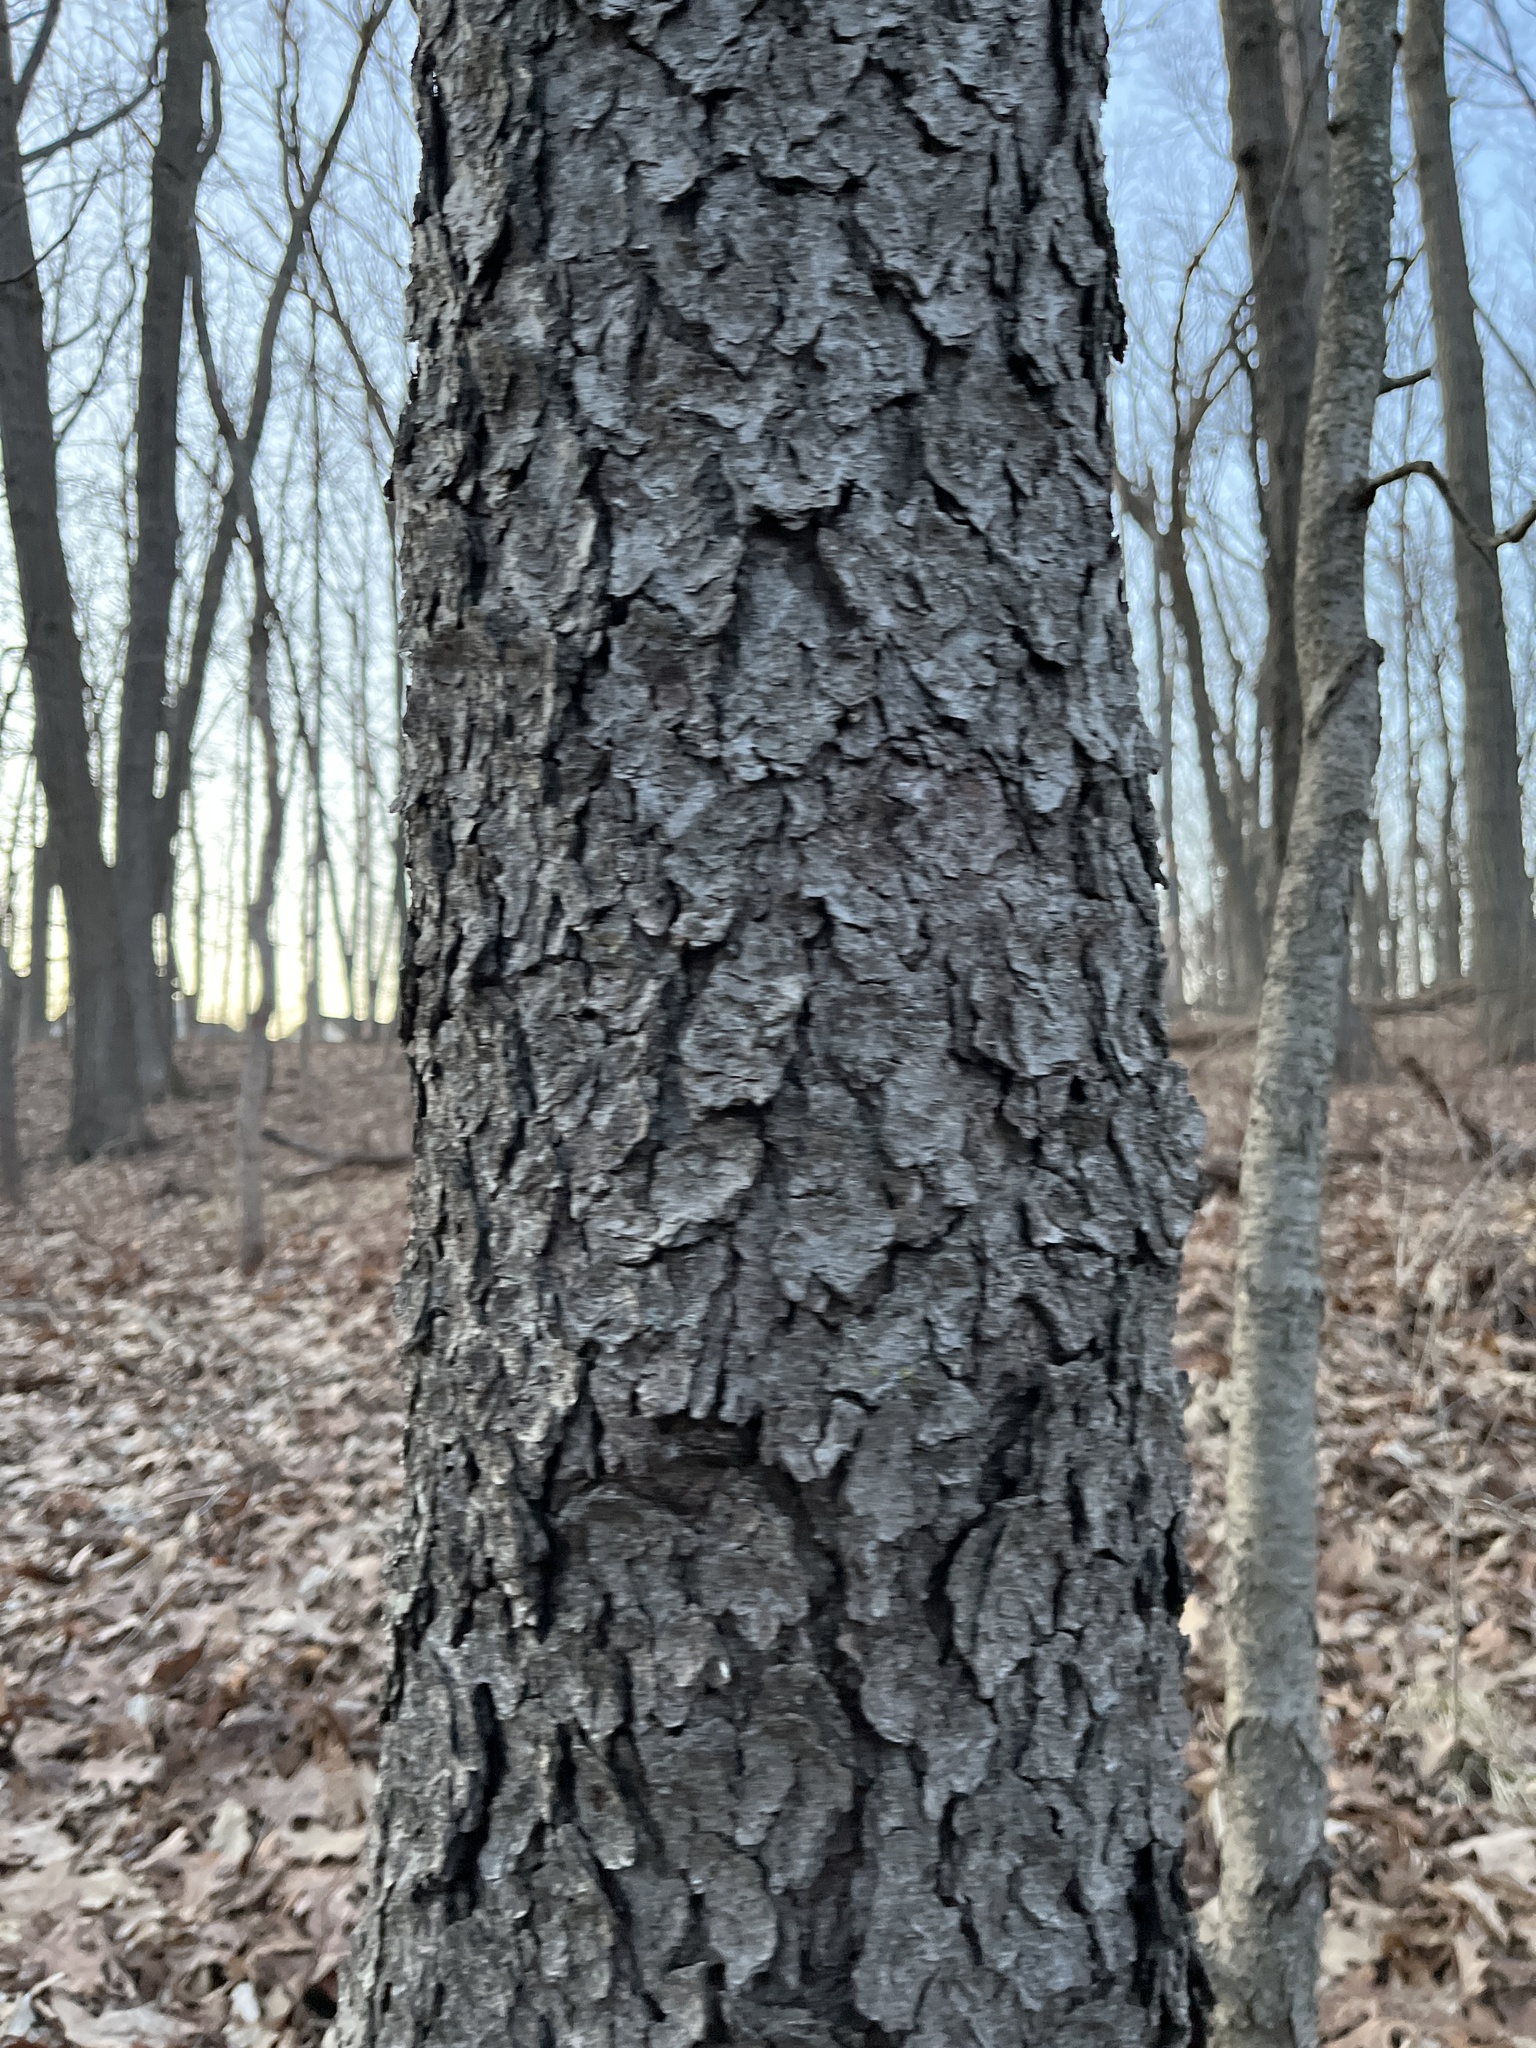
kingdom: Plantae
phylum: Tracheophyta
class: Magnoliopsida
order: Rosales
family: Rosaceae
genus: Prunus
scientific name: Prunus serotina
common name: Black cherry
